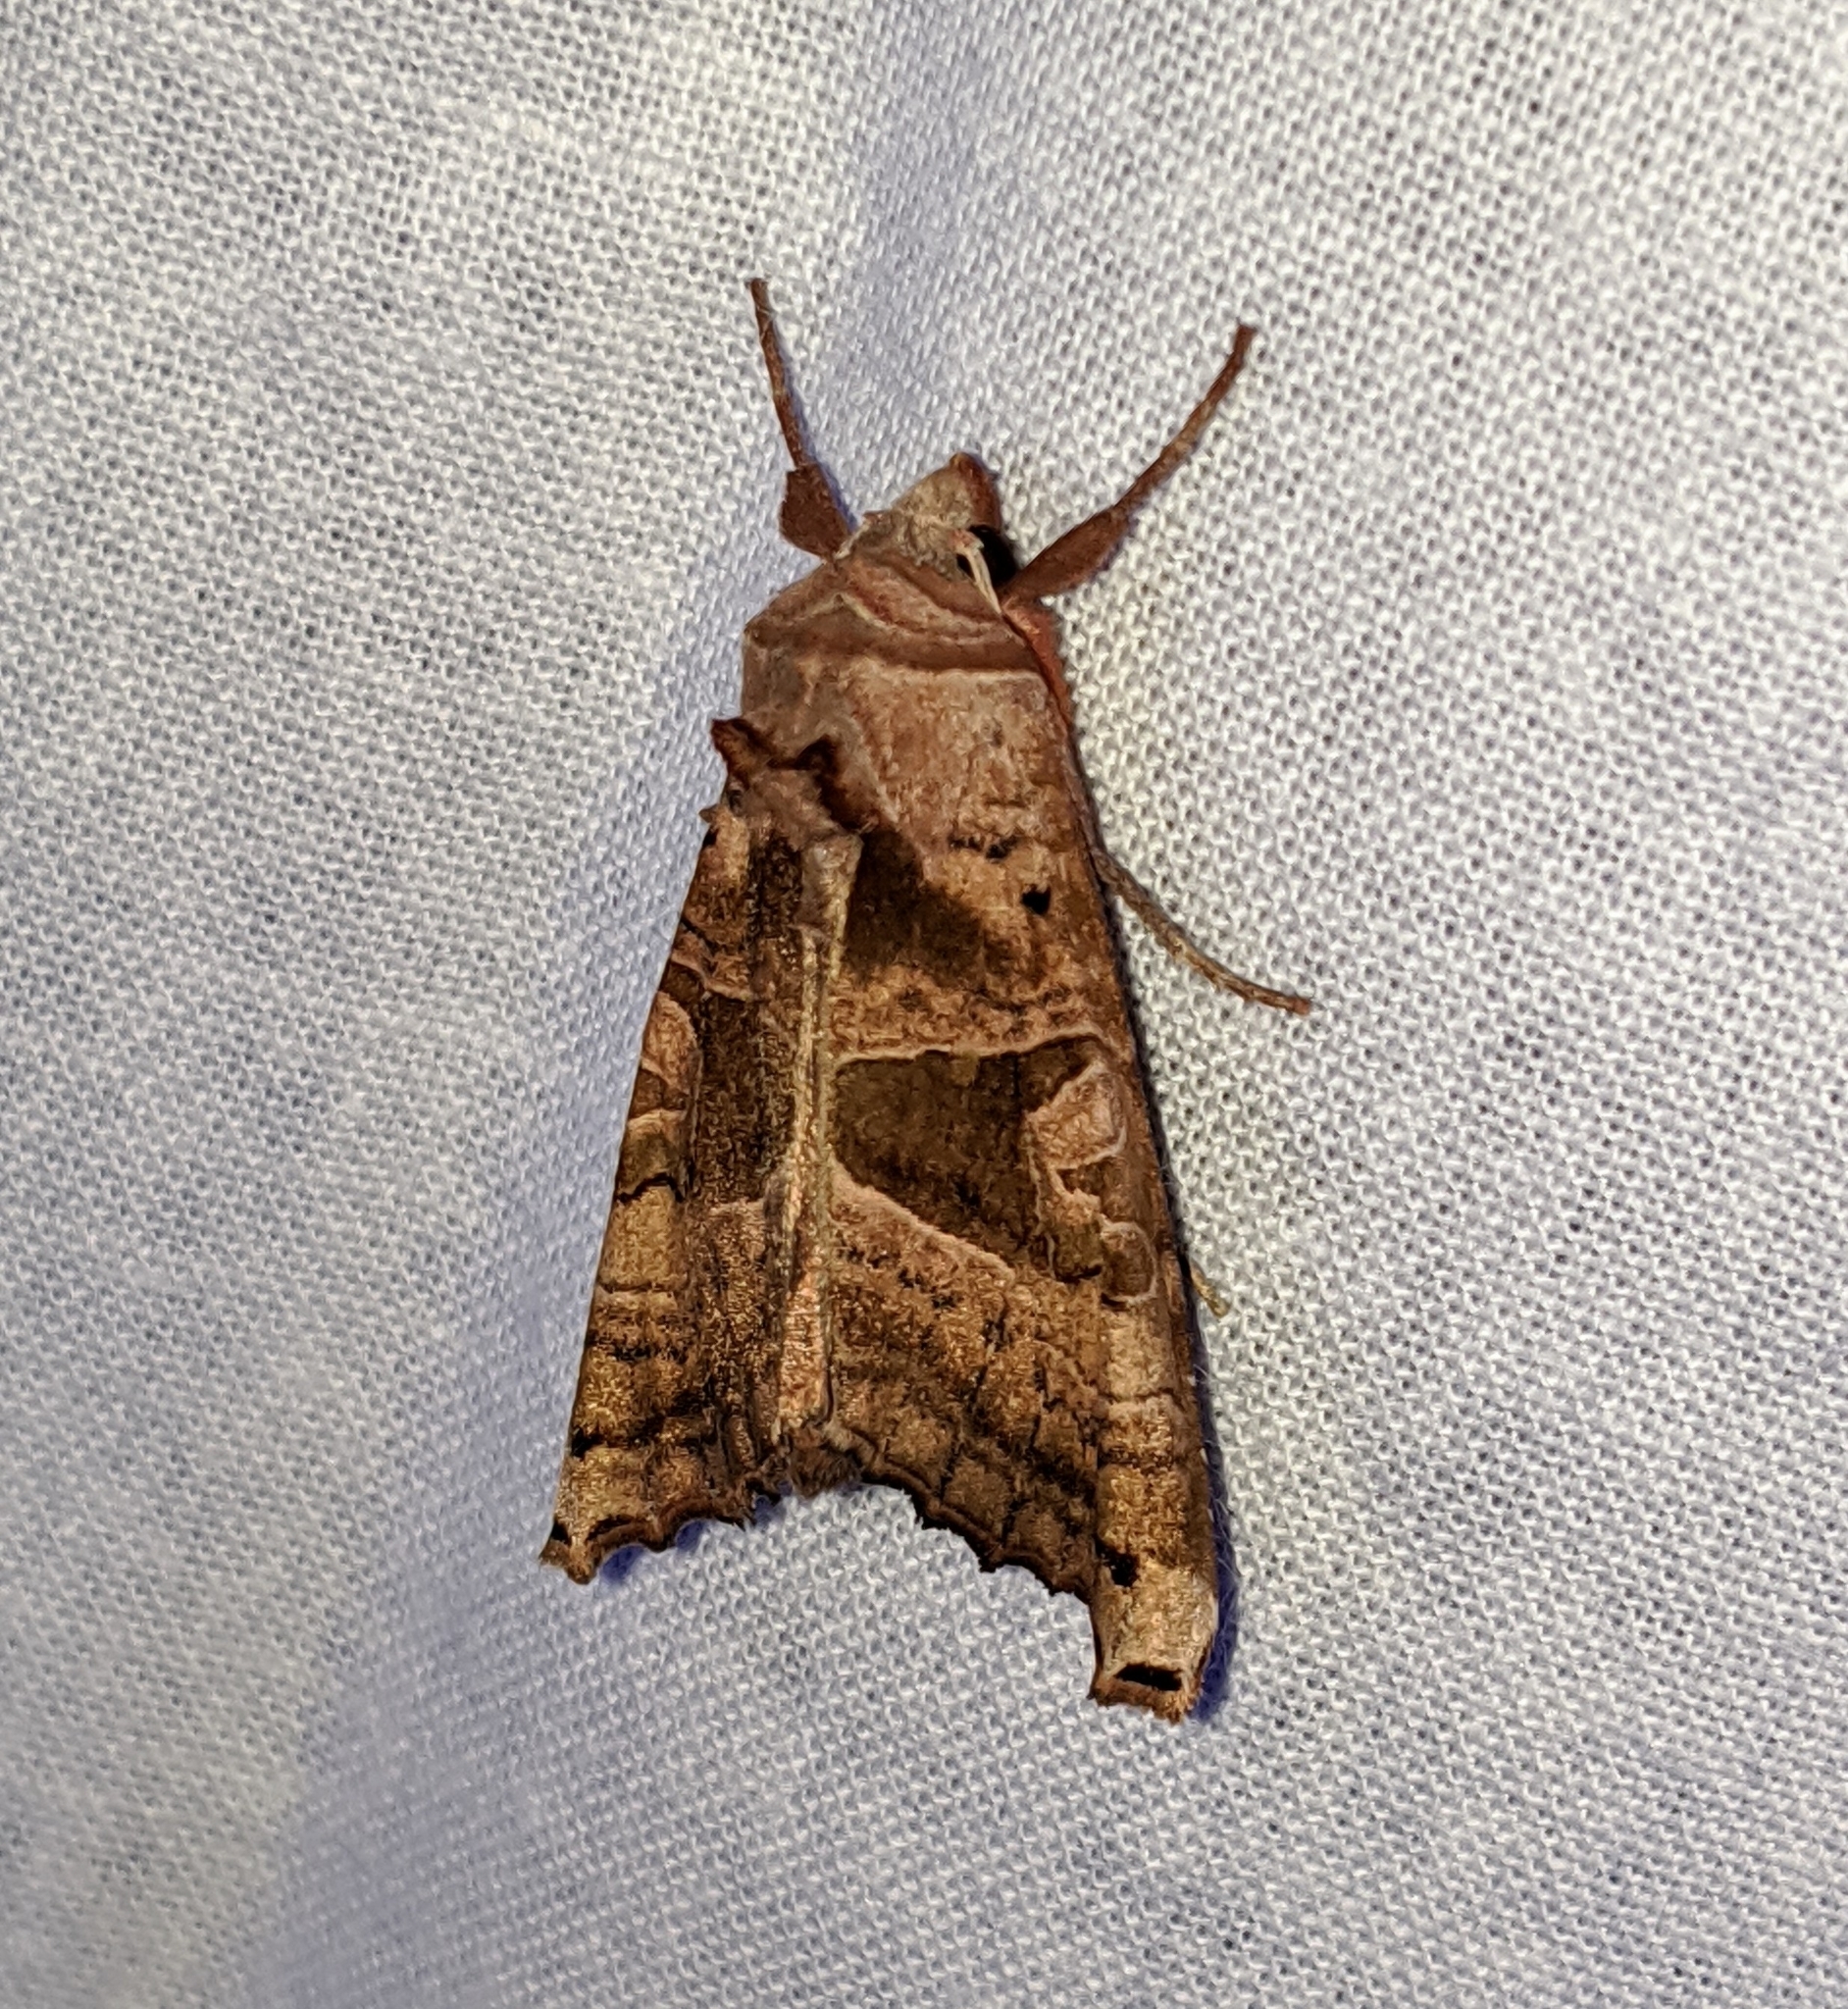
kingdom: Animalia
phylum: Arthropoda
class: Insecta
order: Lepidoptera
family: Noctuidae
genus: Phlogophora
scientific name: Phlogophora periculosa
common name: Brown angle shades
